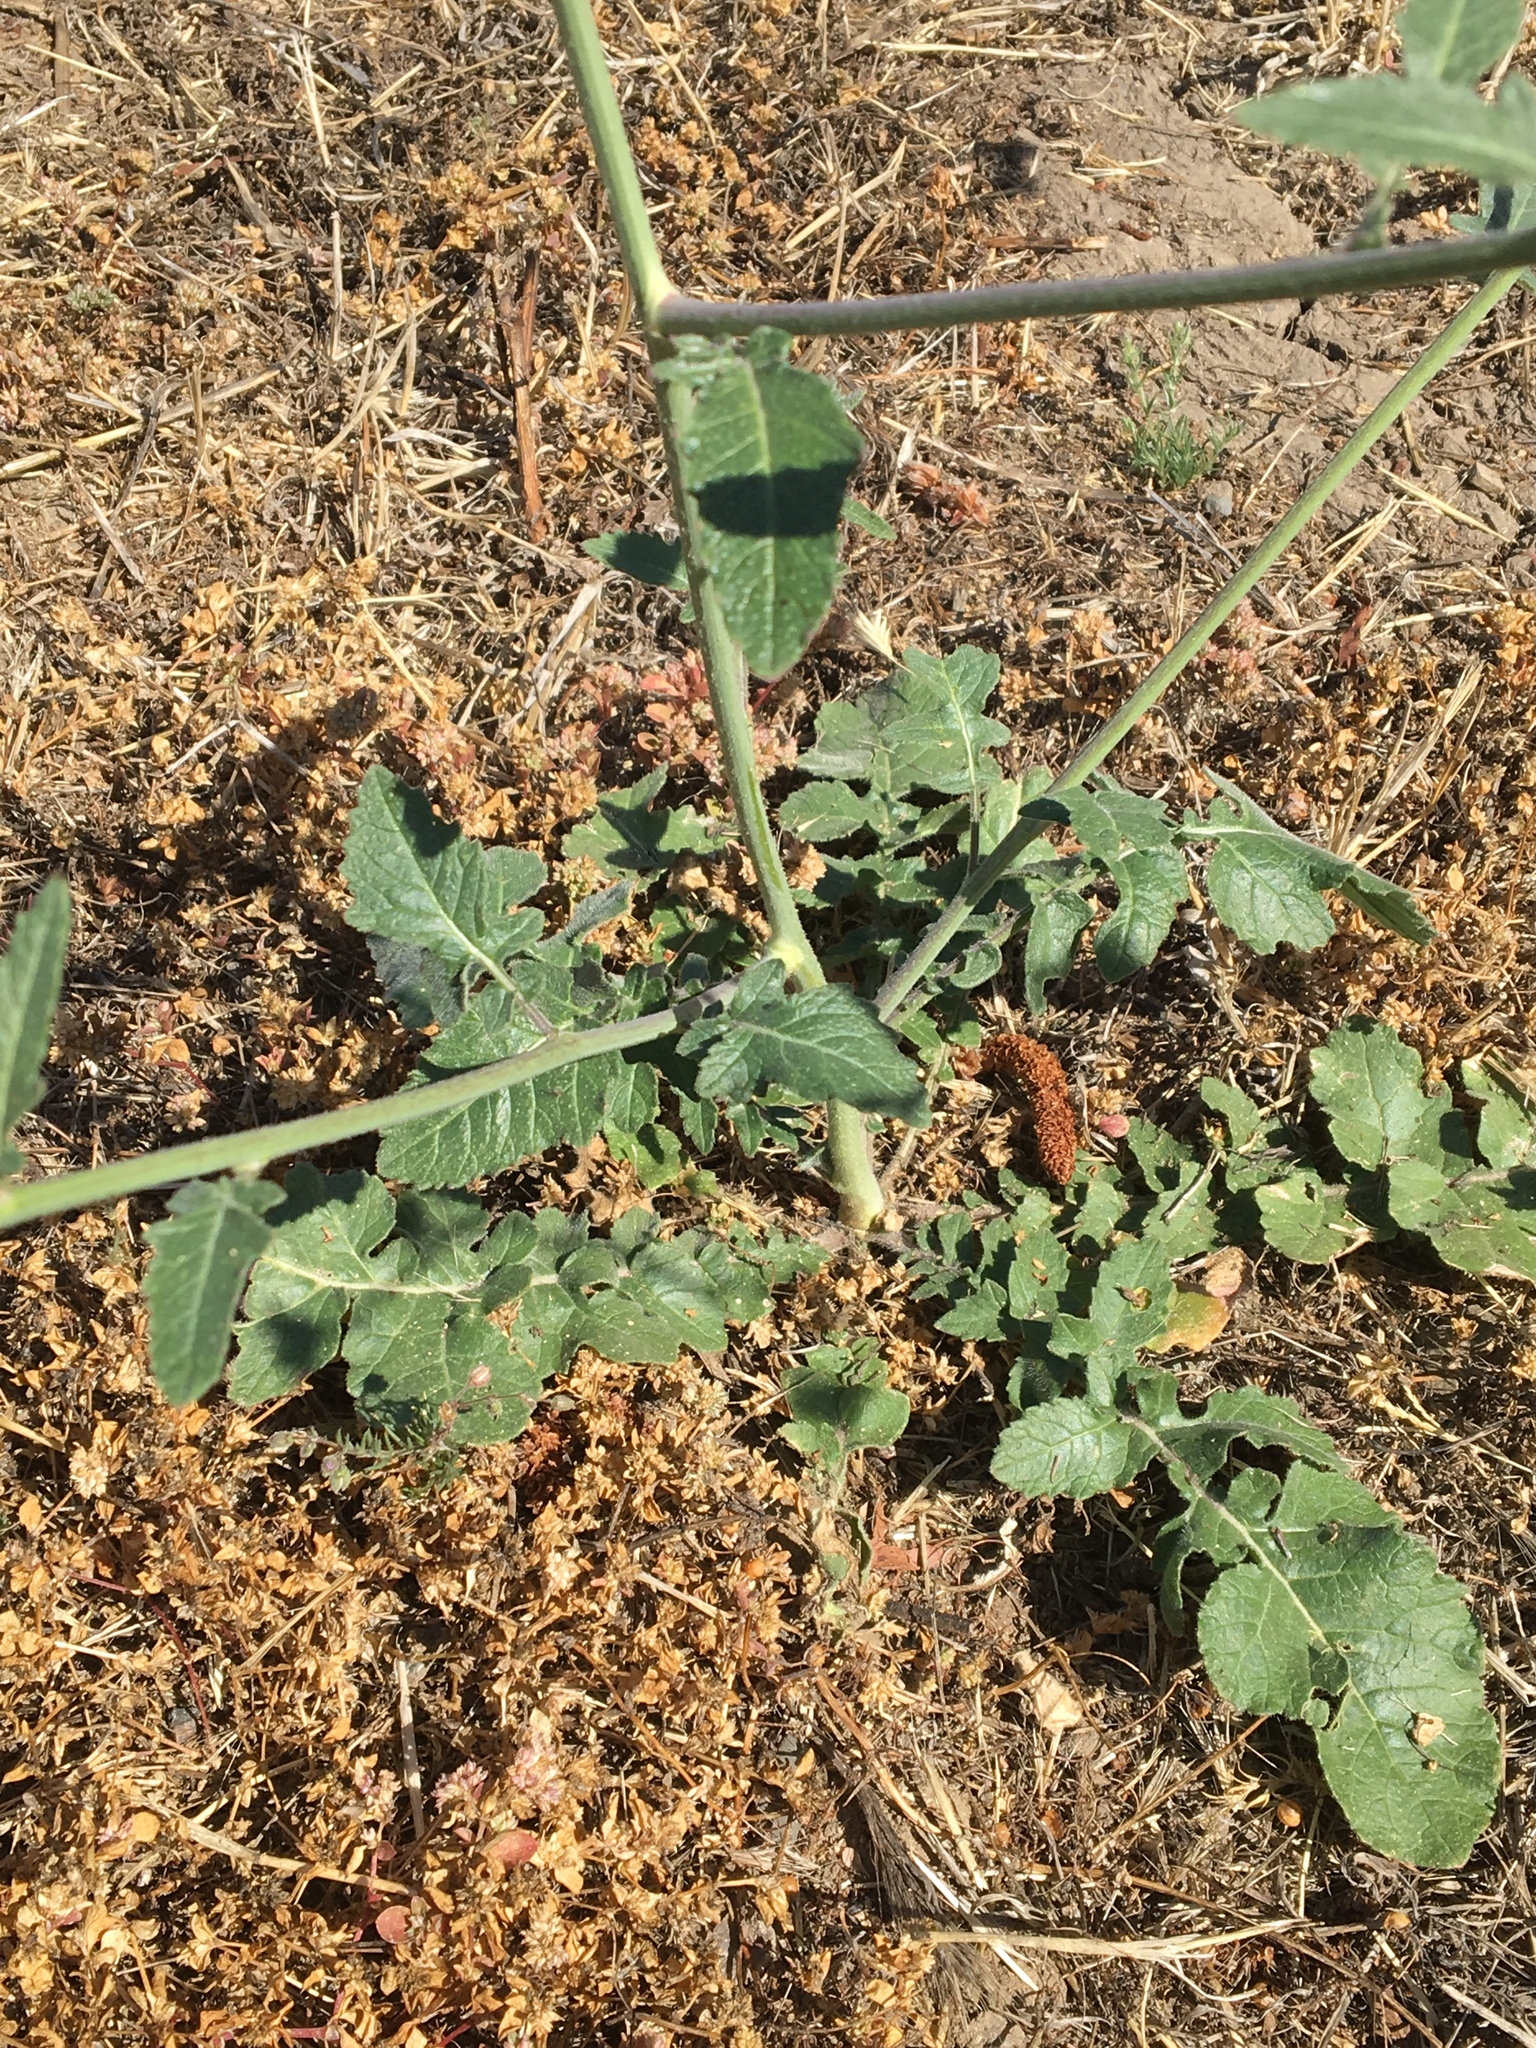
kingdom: Plantae
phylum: Tracheophyta
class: Magnoliopsida
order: Brassicales
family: Brassicaceae
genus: Hirschfeldia
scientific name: Hirschfeldia incana
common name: Hoary mustard
